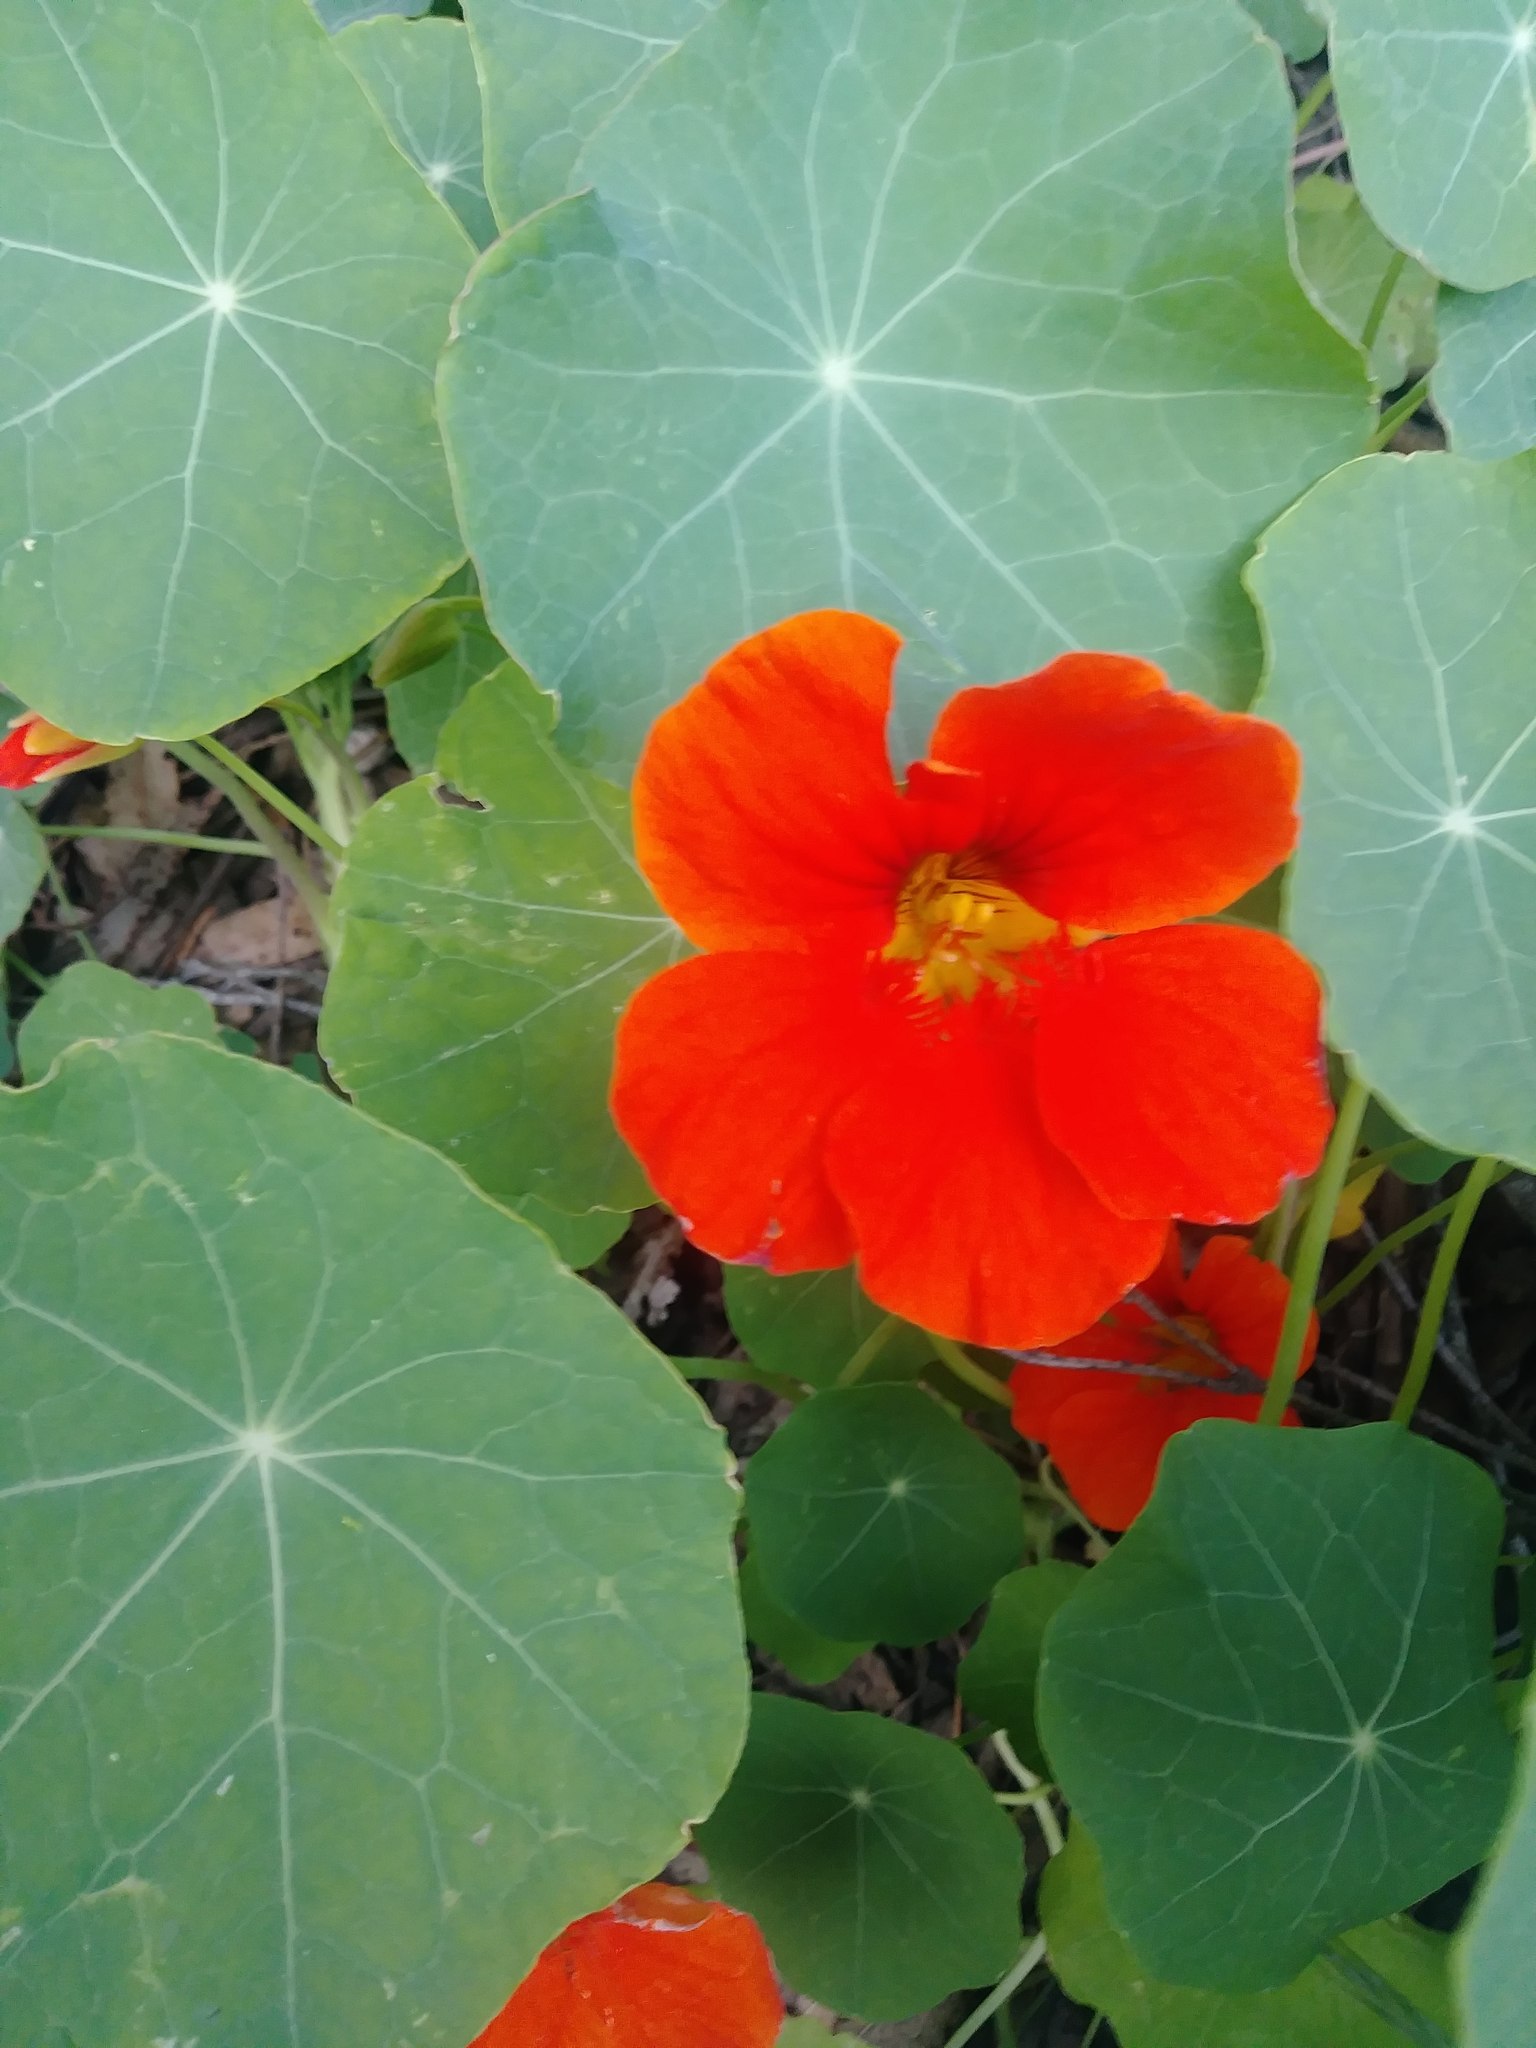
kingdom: Plantae
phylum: Tracheophyta
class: Magnoliopsida
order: Brassicales
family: Tropaeolaceae
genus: Tropaeolum
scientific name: Tropaeolum majus
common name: Nasturtium
